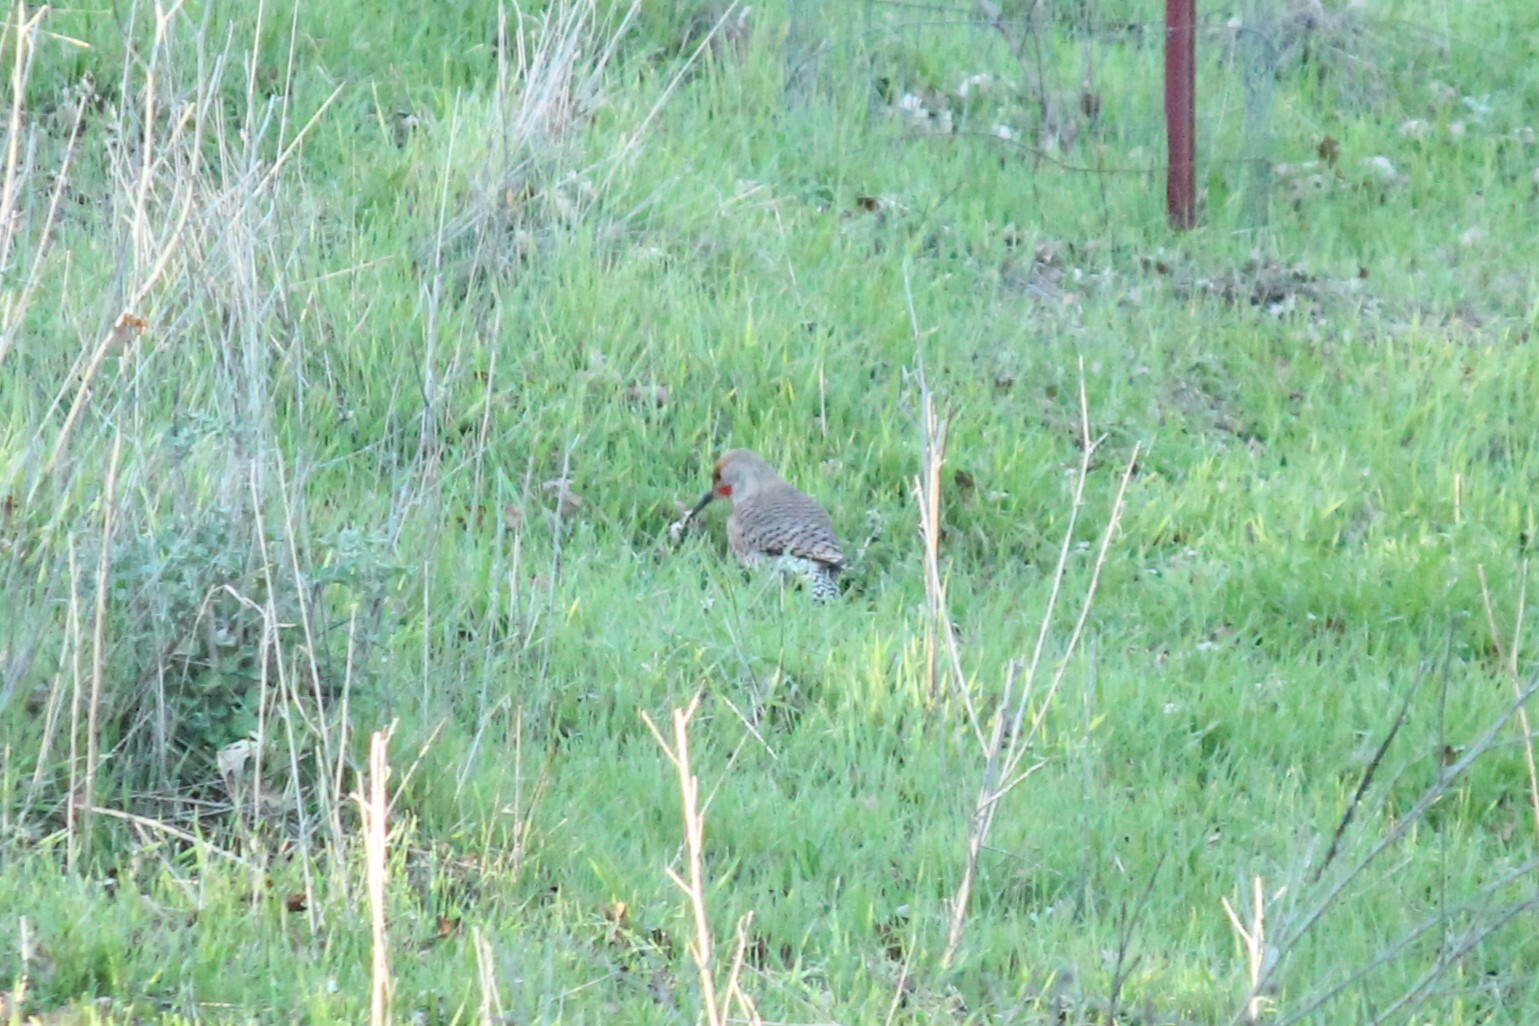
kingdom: Animalia
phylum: Chordata
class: Aves
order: Piciformes
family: Picidae
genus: Colaptes
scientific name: Colaptes auratus
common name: Northern flicker
